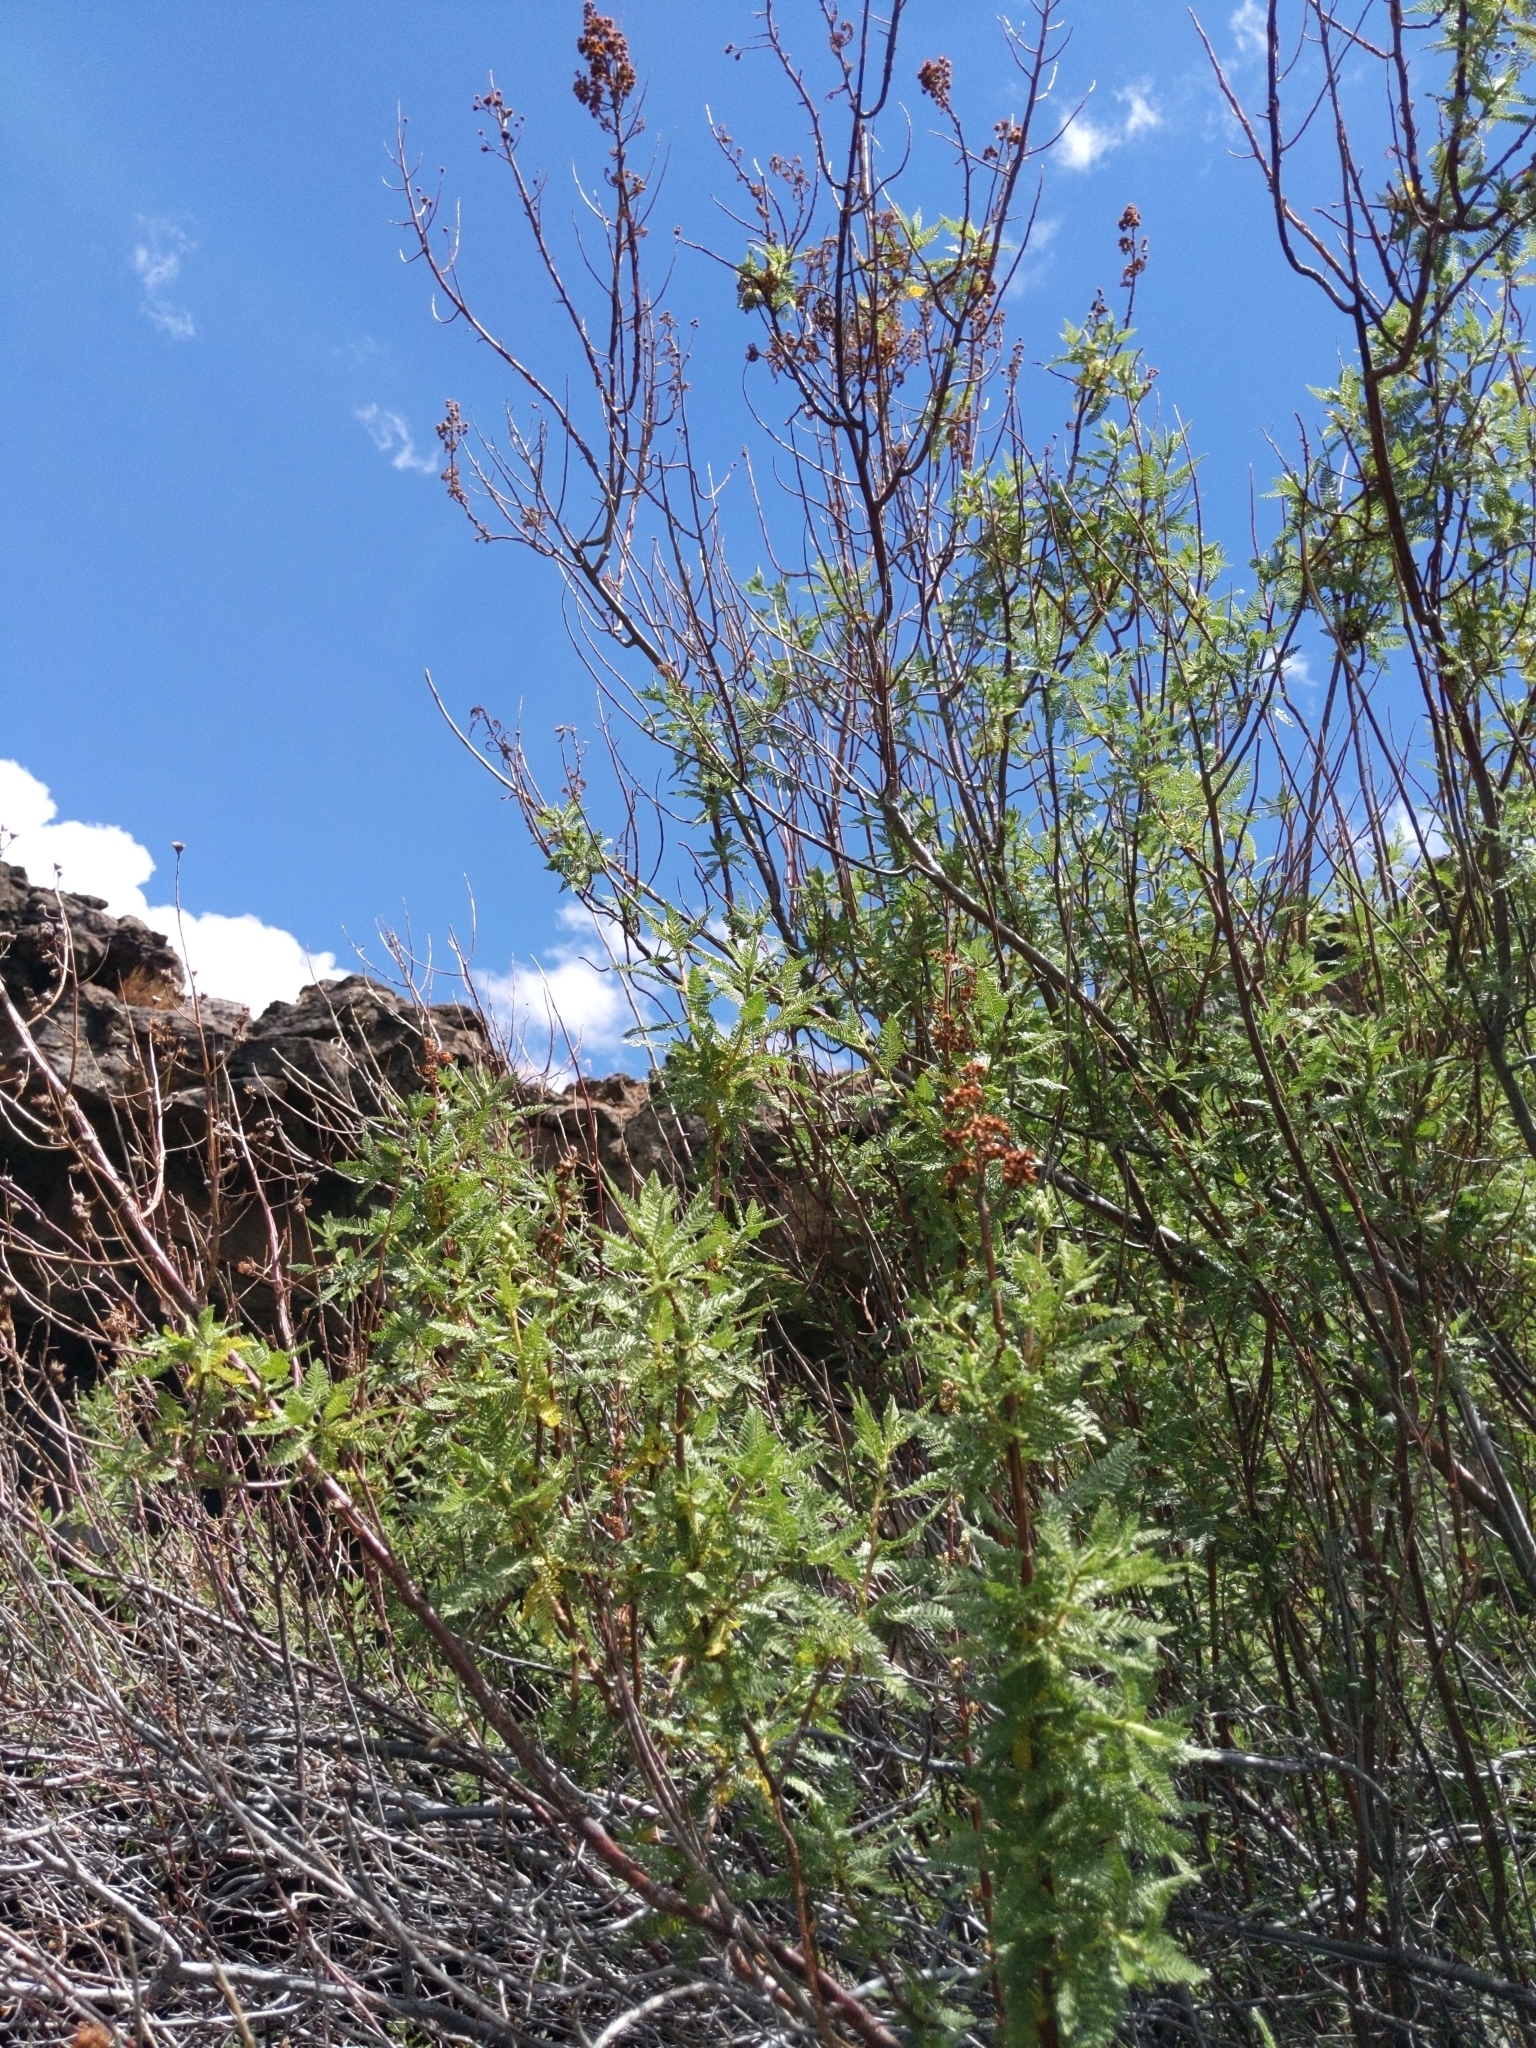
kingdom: Plantae
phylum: Tracheophyta
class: Magnoliopsida
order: Rosales
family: Rosaceae
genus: Chamaebatiaria
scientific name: Chamaebatiaria millefolium
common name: Fernbush
